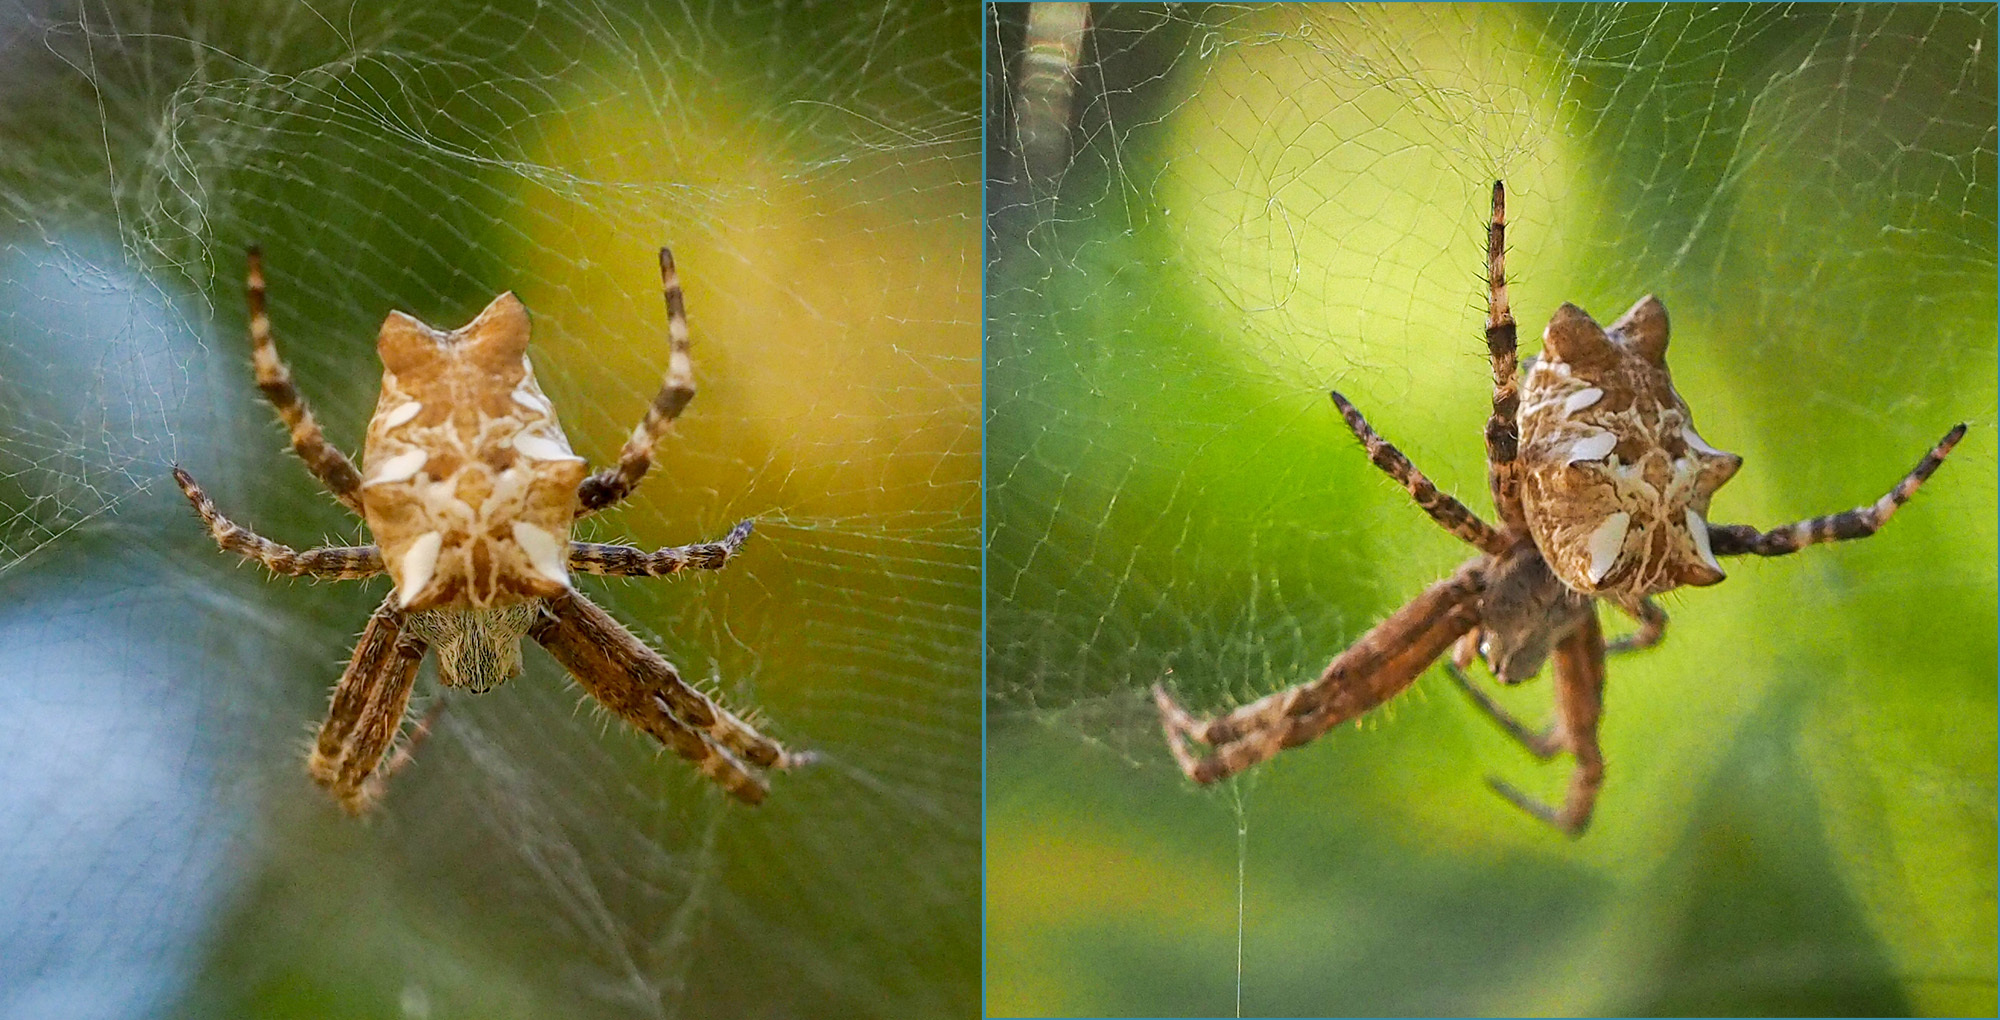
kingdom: Animalia
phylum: Arthropoda
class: Arachnida
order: Araneae
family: Araneidae
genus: Cyrtophora
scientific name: Cyrtophora citricola
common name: Orb weavers
